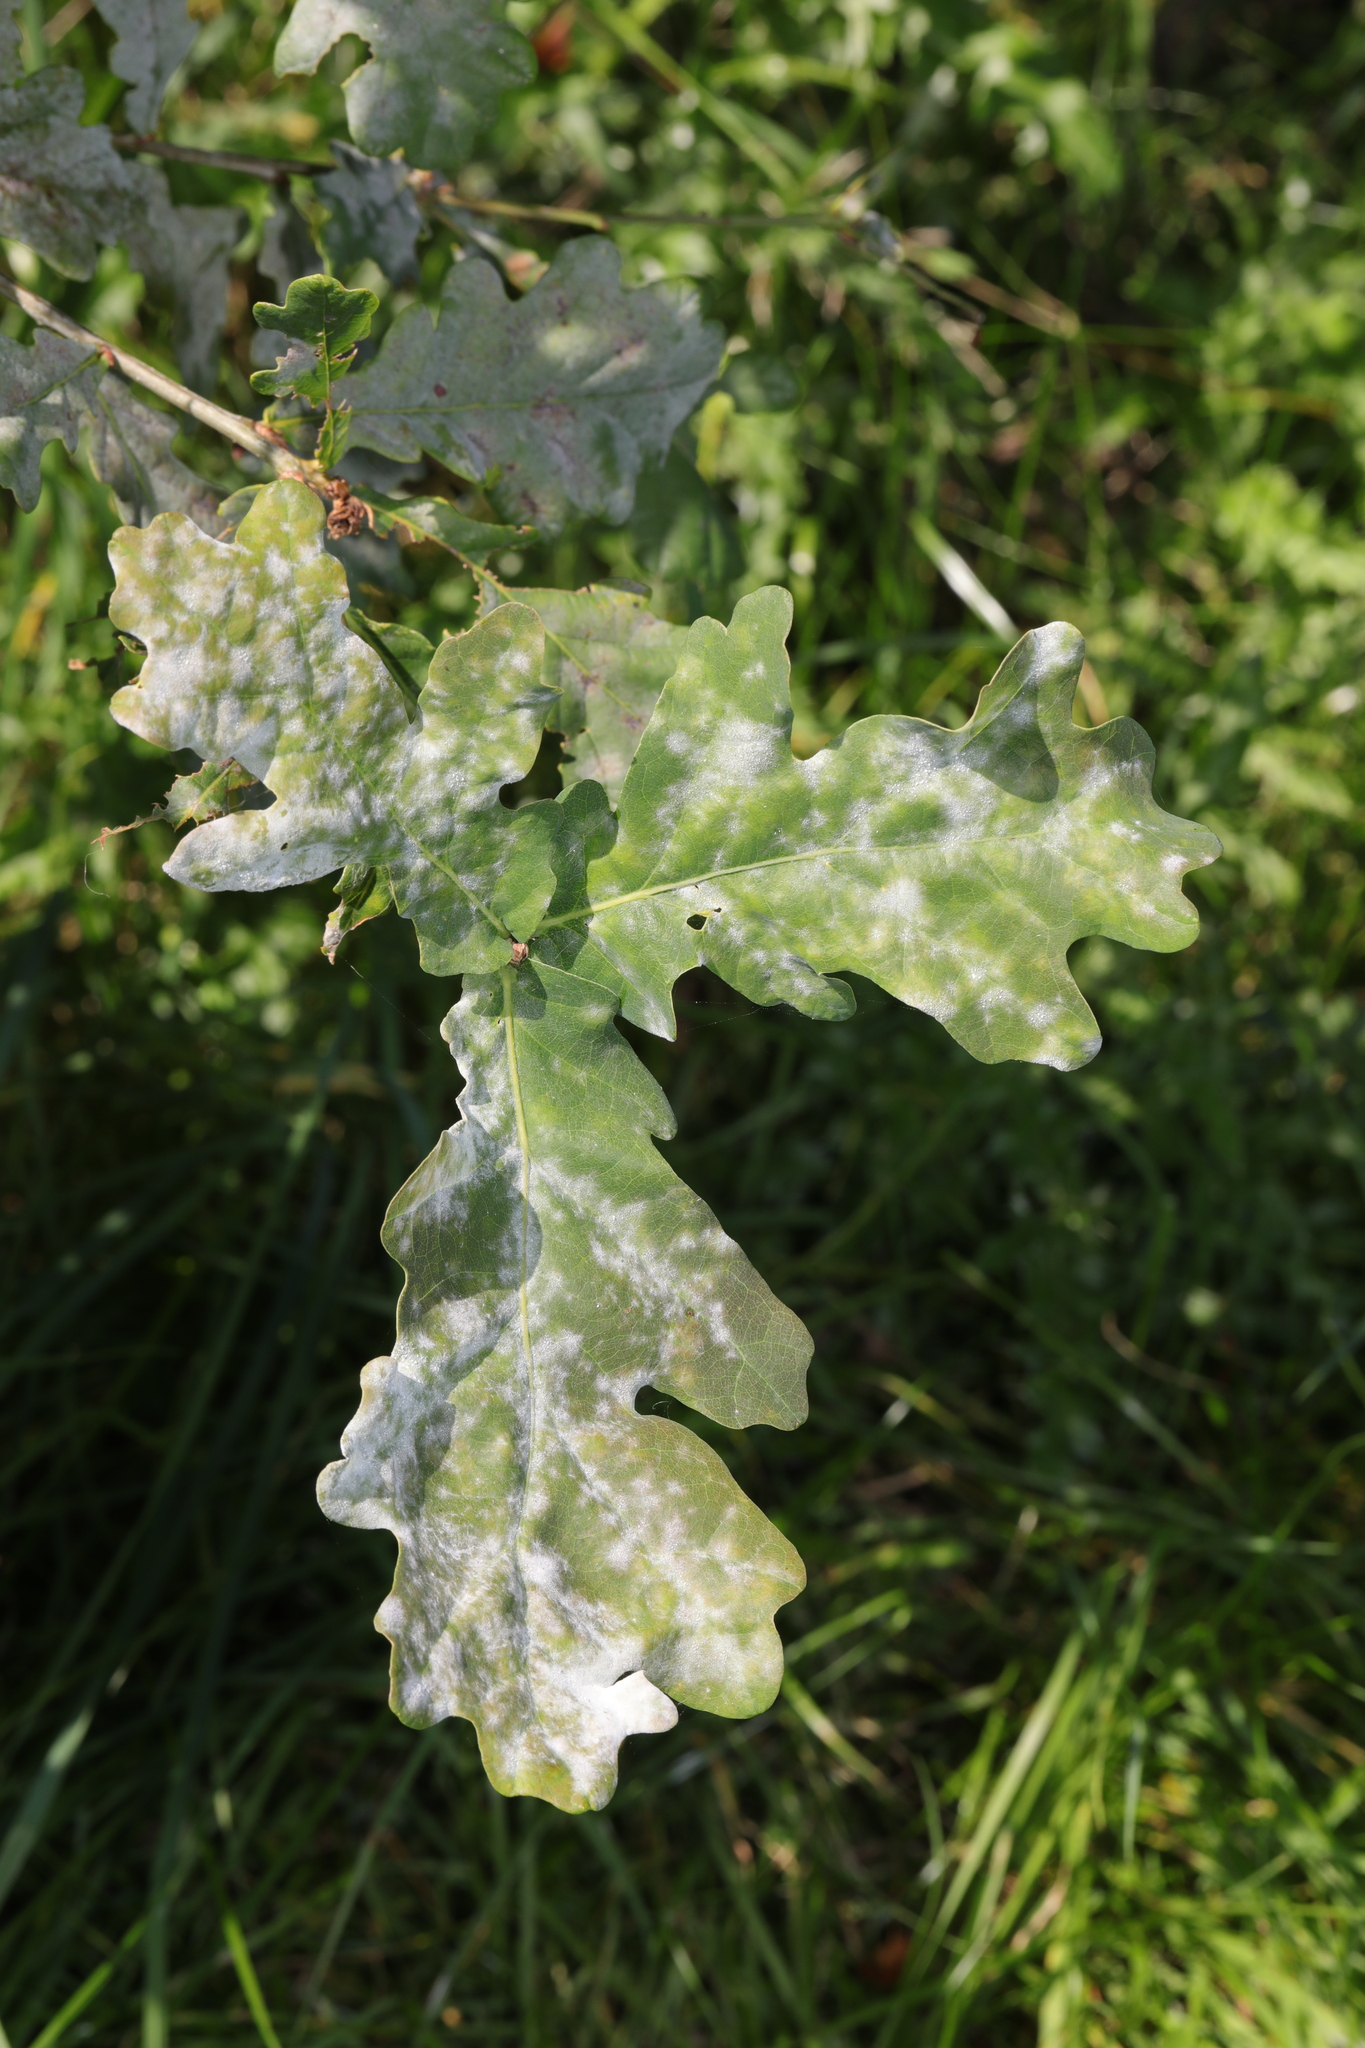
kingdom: Fungi
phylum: Ascomycota
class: Leotiomycetes
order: Helotiales
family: Erysiphaceae
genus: Erysiphe
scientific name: Erysiphe alphitoides
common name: Oak mildew
